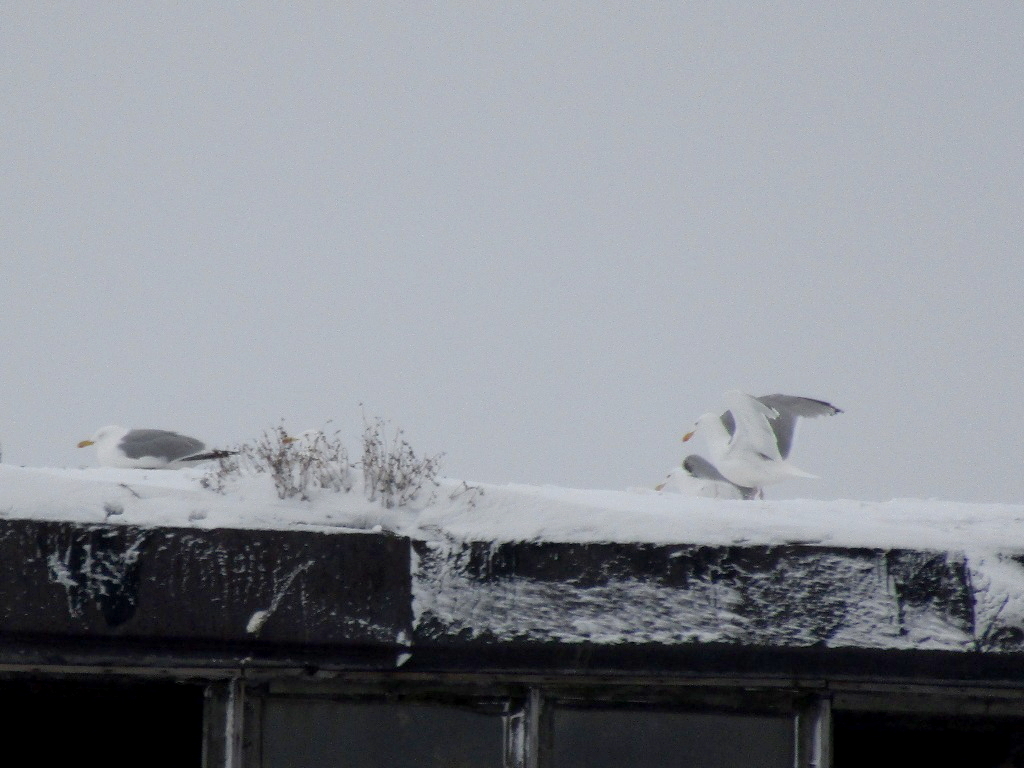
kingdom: Animalia
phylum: Chordata
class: Aves
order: Charadriiformes
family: Laridae
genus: Larus
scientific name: Larus argentatus
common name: Herring gull
